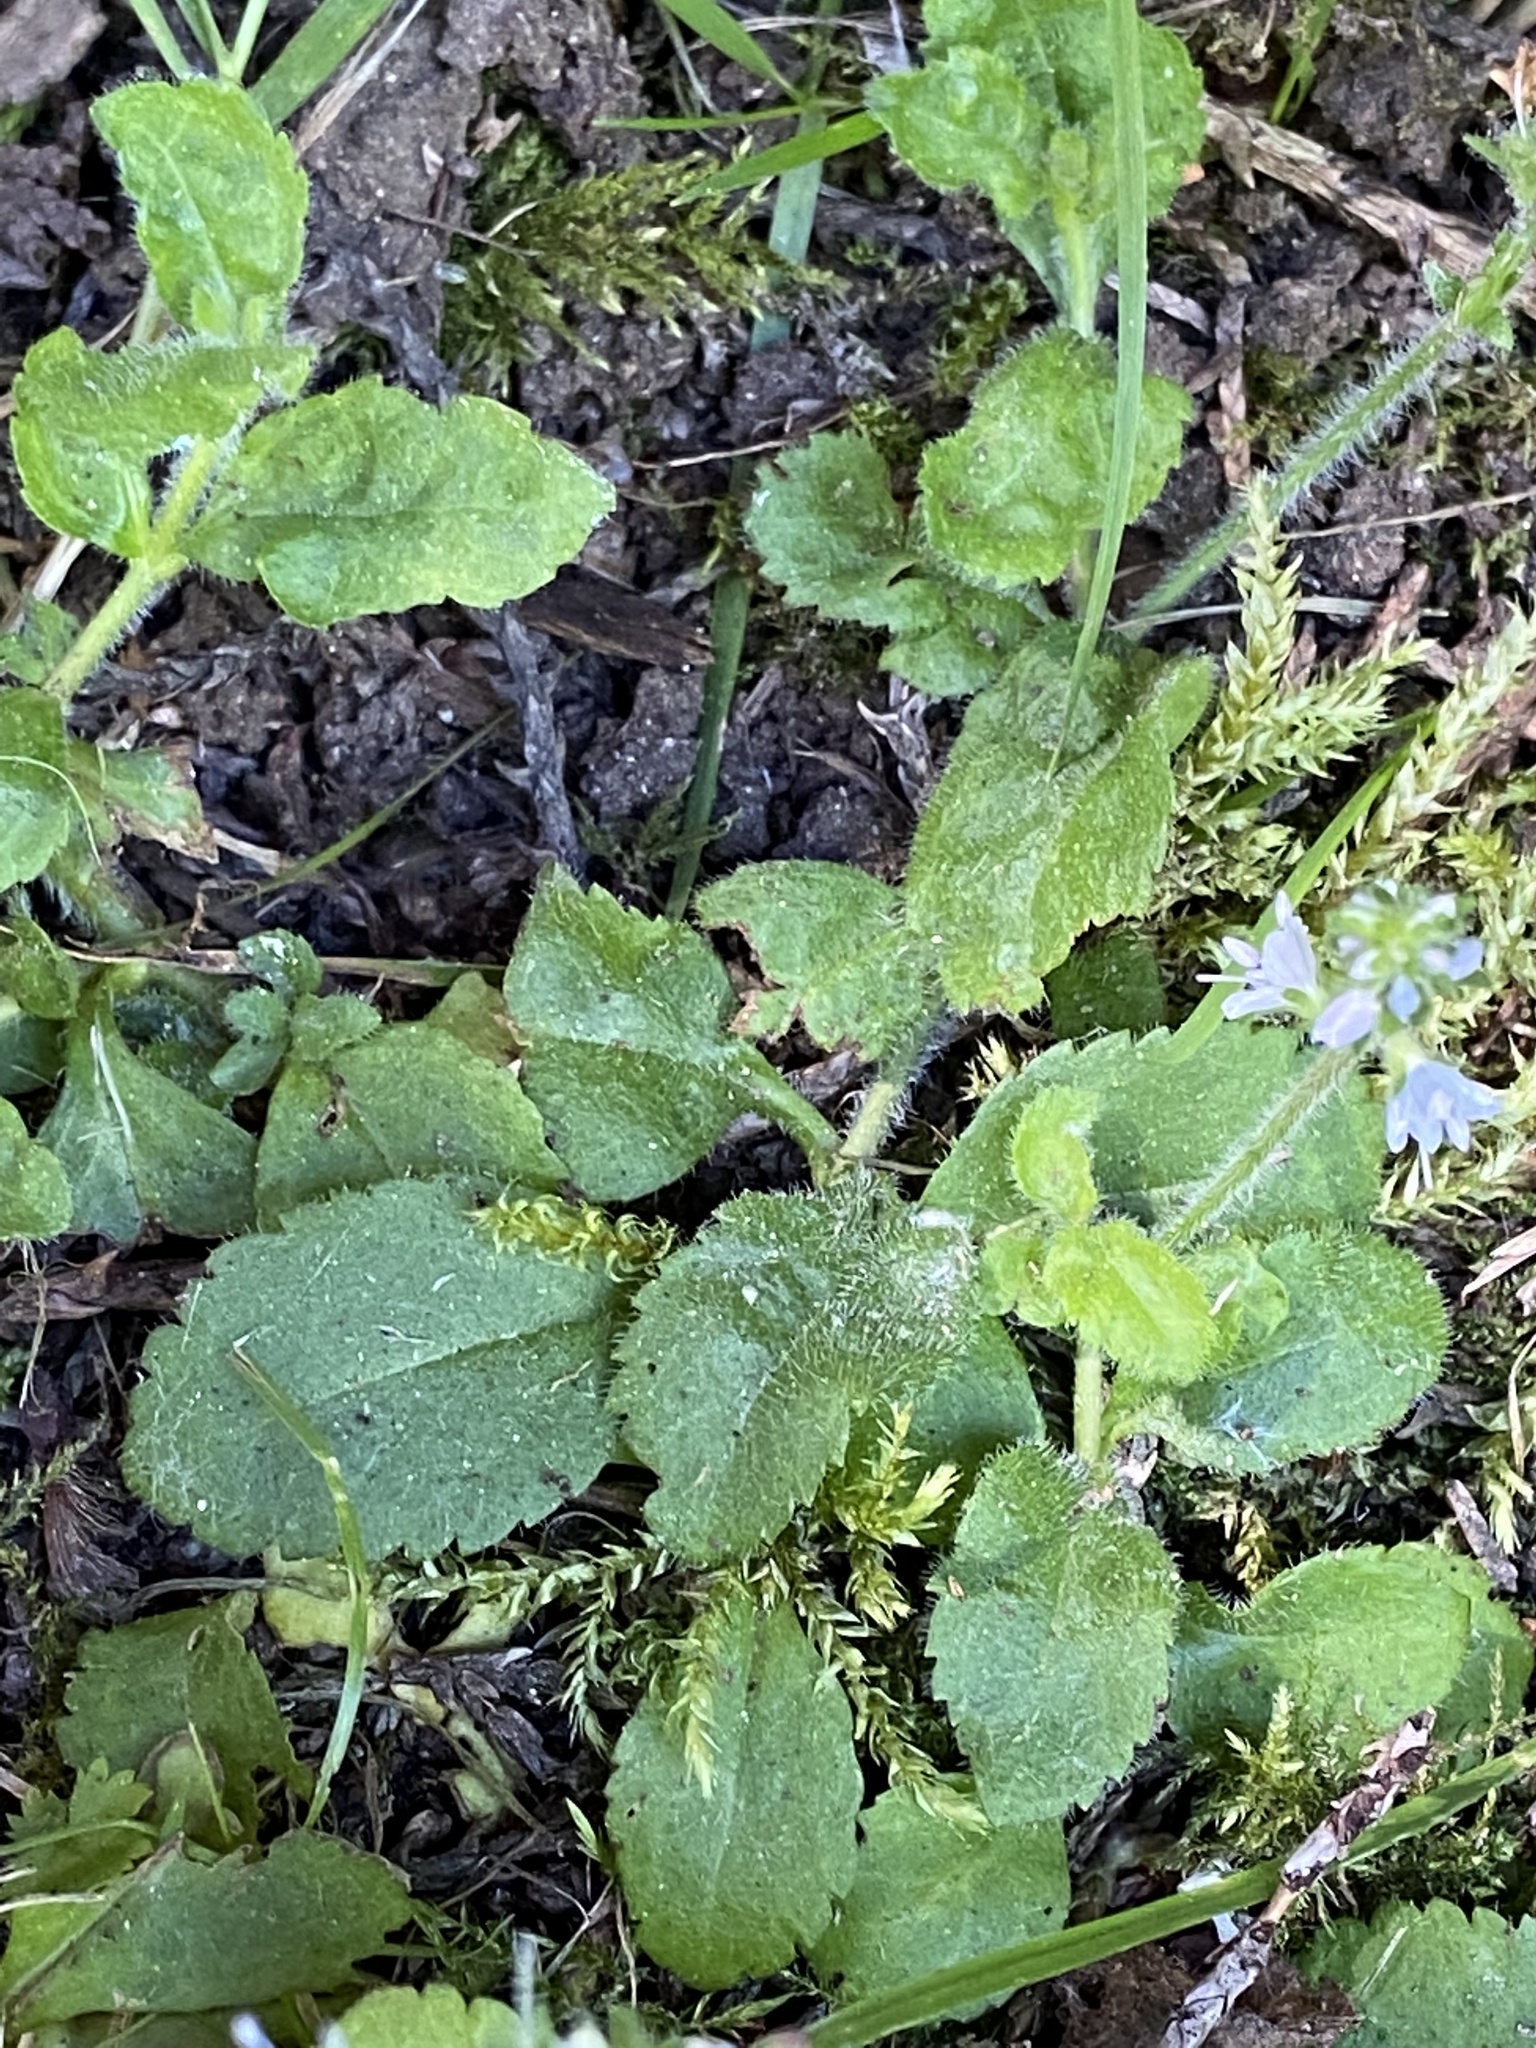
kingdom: Plantae
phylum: Tracheophyta
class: Magnoliopsida
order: Lamiales
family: Plantaginaceae
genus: Veronica
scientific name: Veronica officinalis
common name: Common speedwell
